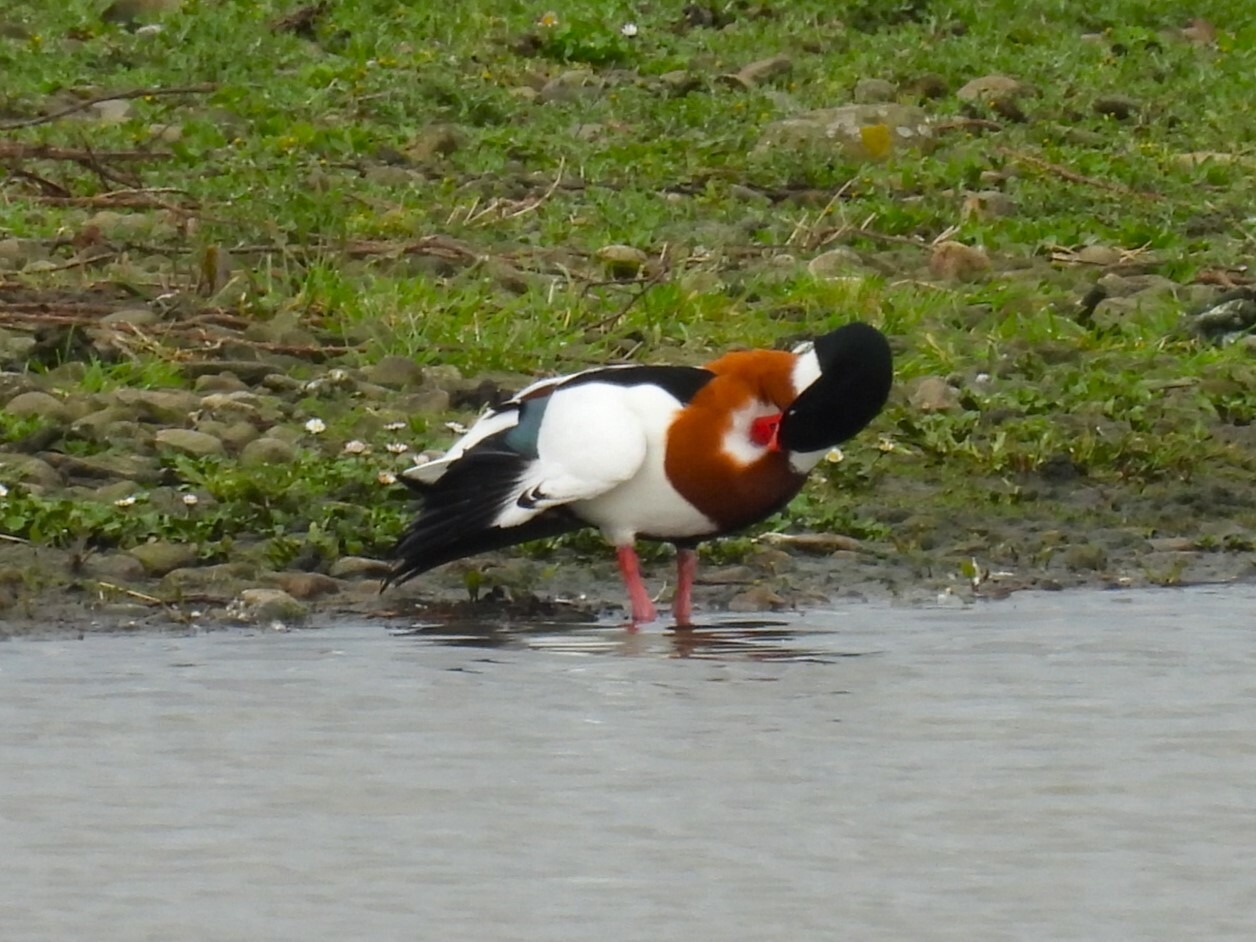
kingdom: Animalia
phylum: Chordata
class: Aves
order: Anseriformes
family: Anatidae
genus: Tadorna
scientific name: Tadorna tadorna
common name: Common shelduck
